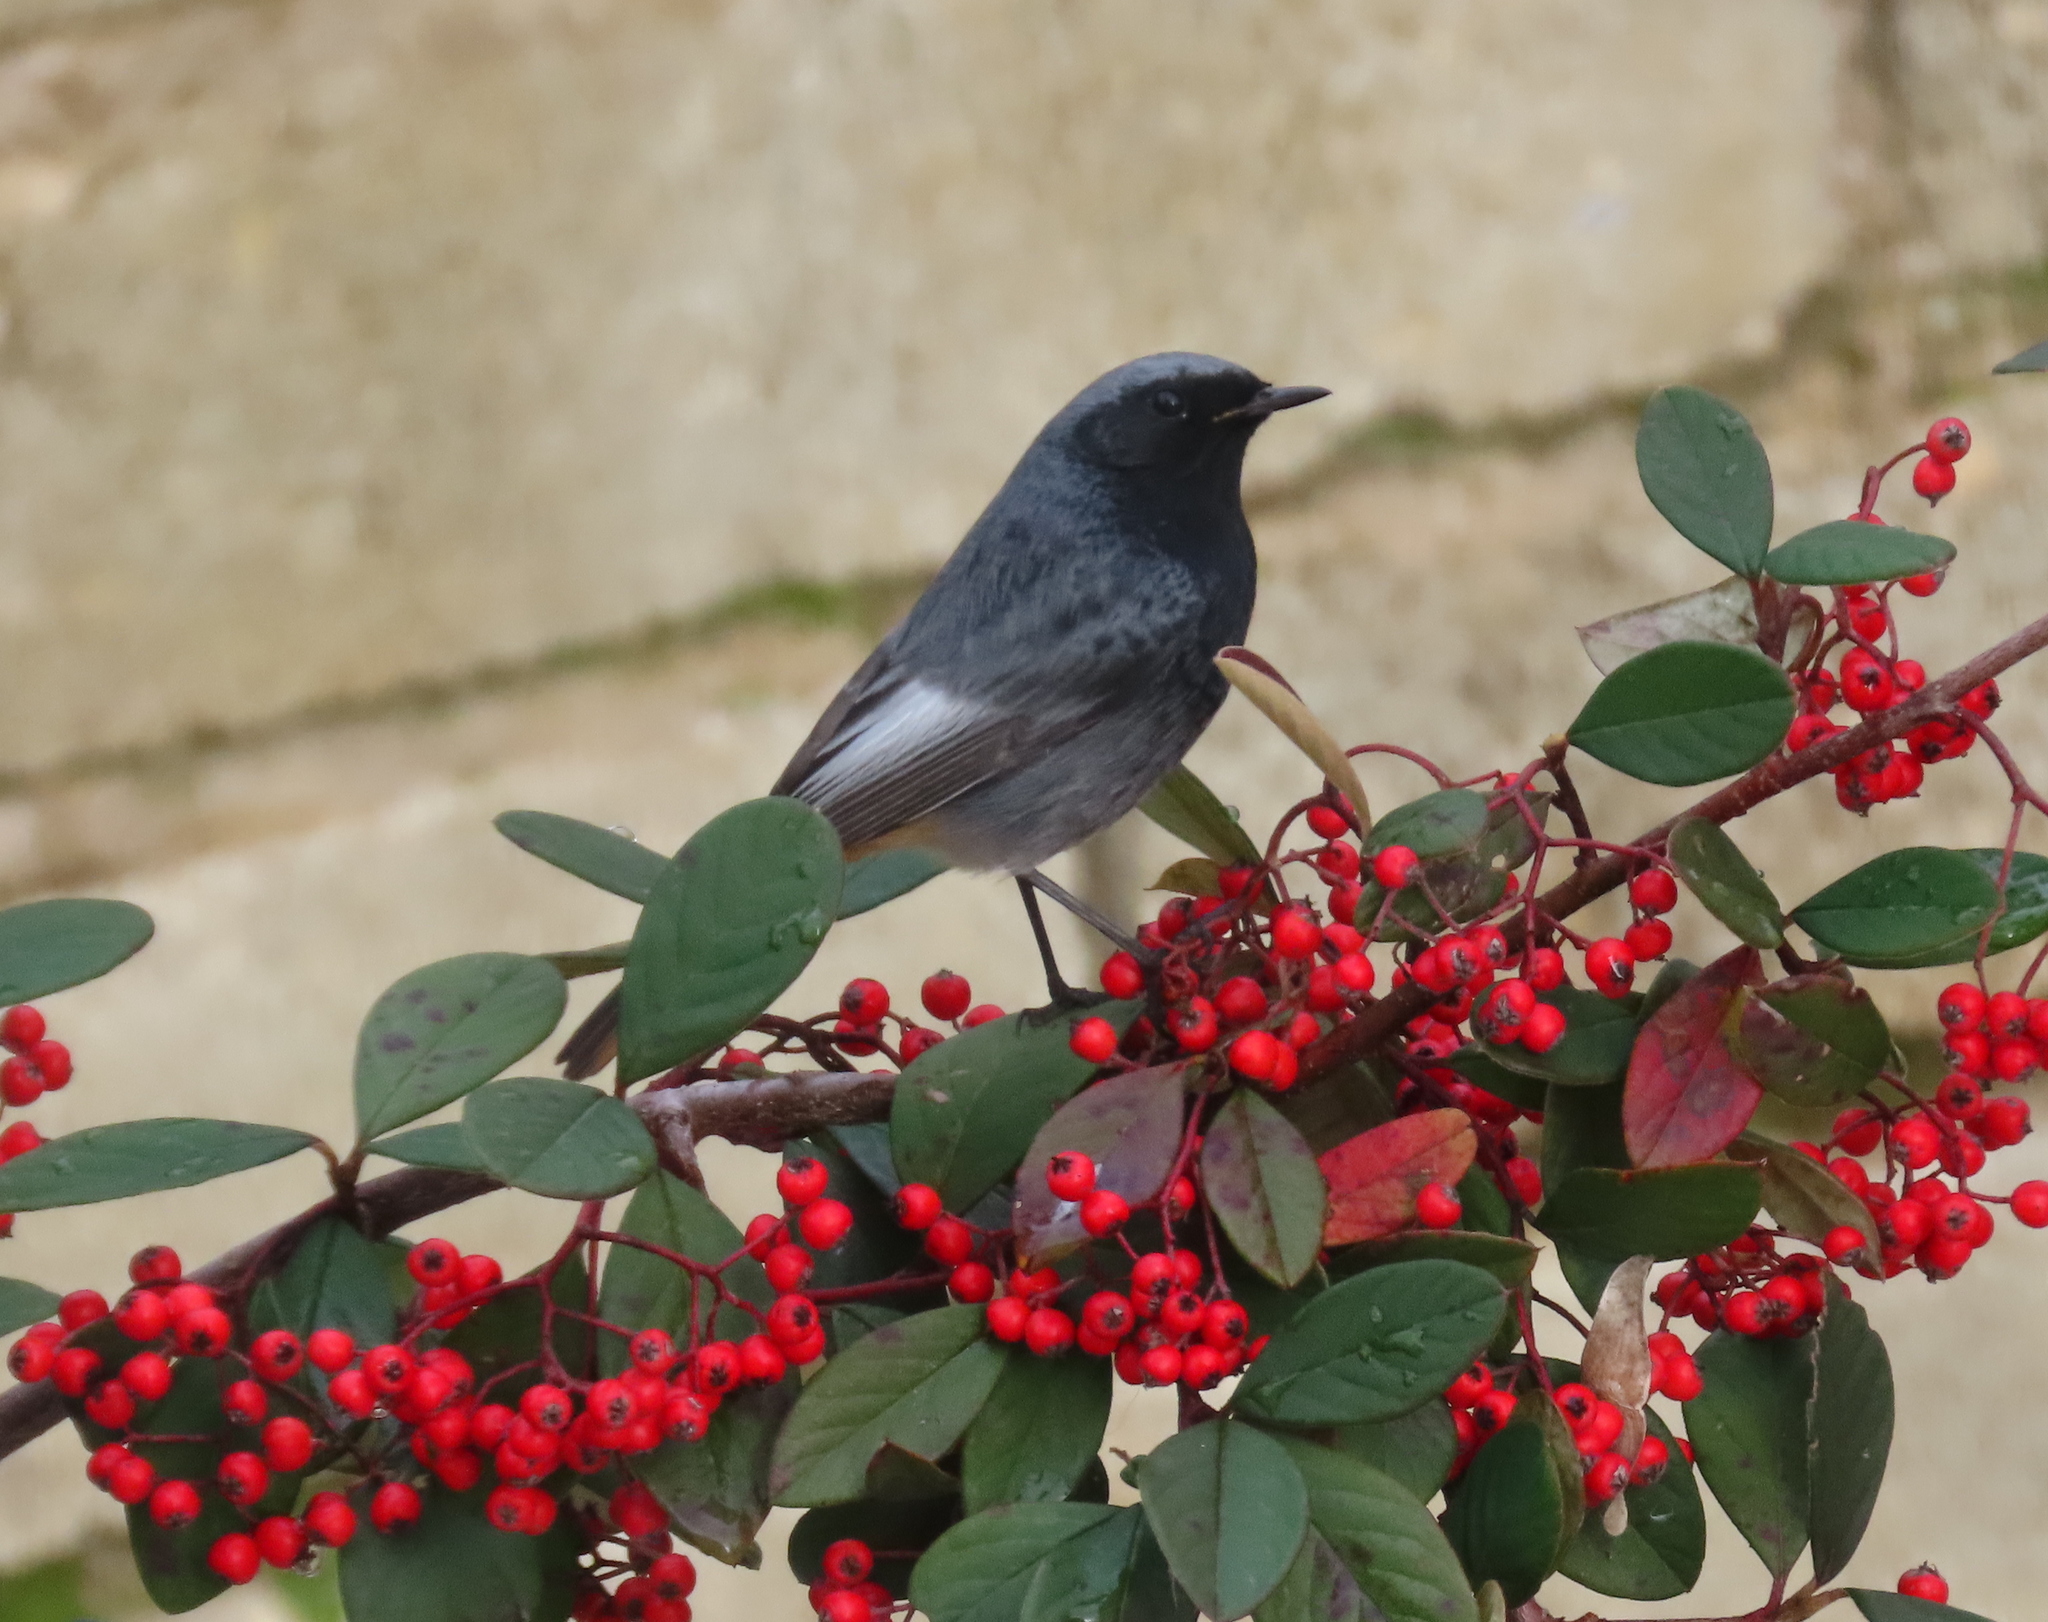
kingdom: Animalia
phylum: Chordata
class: Aves
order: Passeriformes
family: Muscicapidae
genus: Phoenicurus
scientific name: Phoenicurus ochruros
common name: Black redstart
